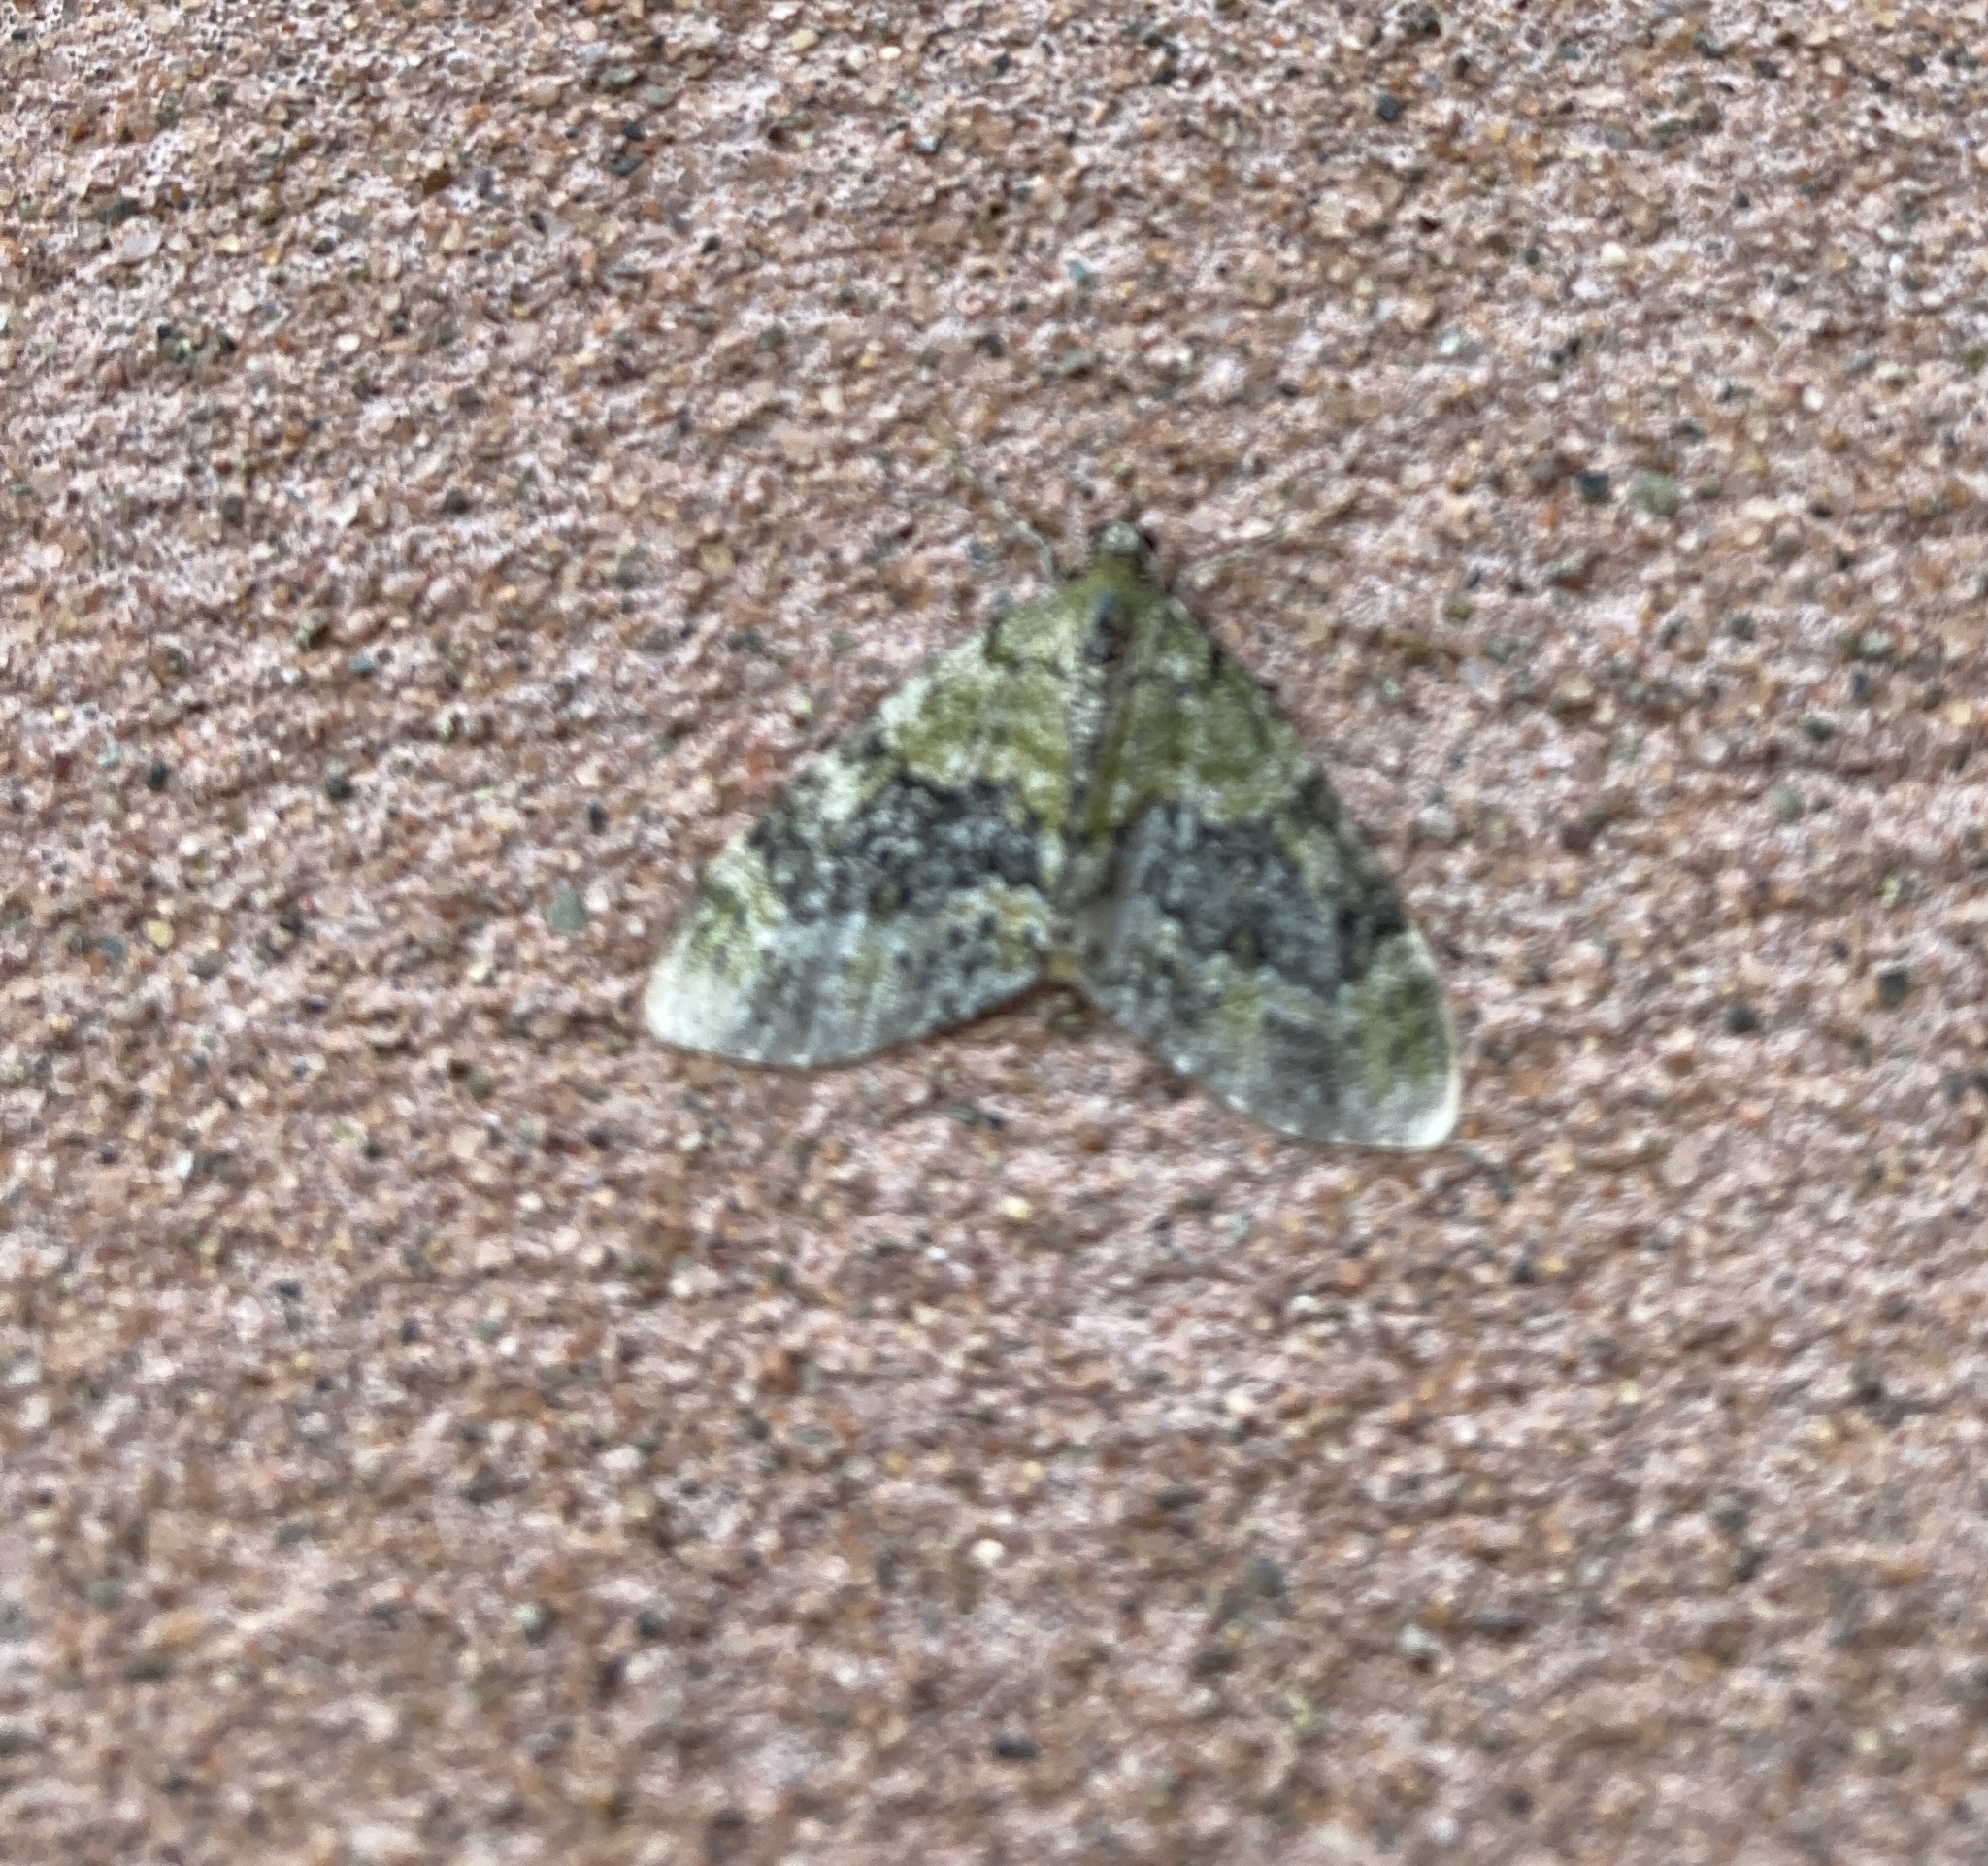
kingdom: Animalia
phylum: Arthropoda
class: Insecta
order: Lepidoptera
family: Geometridae
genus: Acasis
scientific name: Acasis viretata
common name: Yellow-barred brindle
